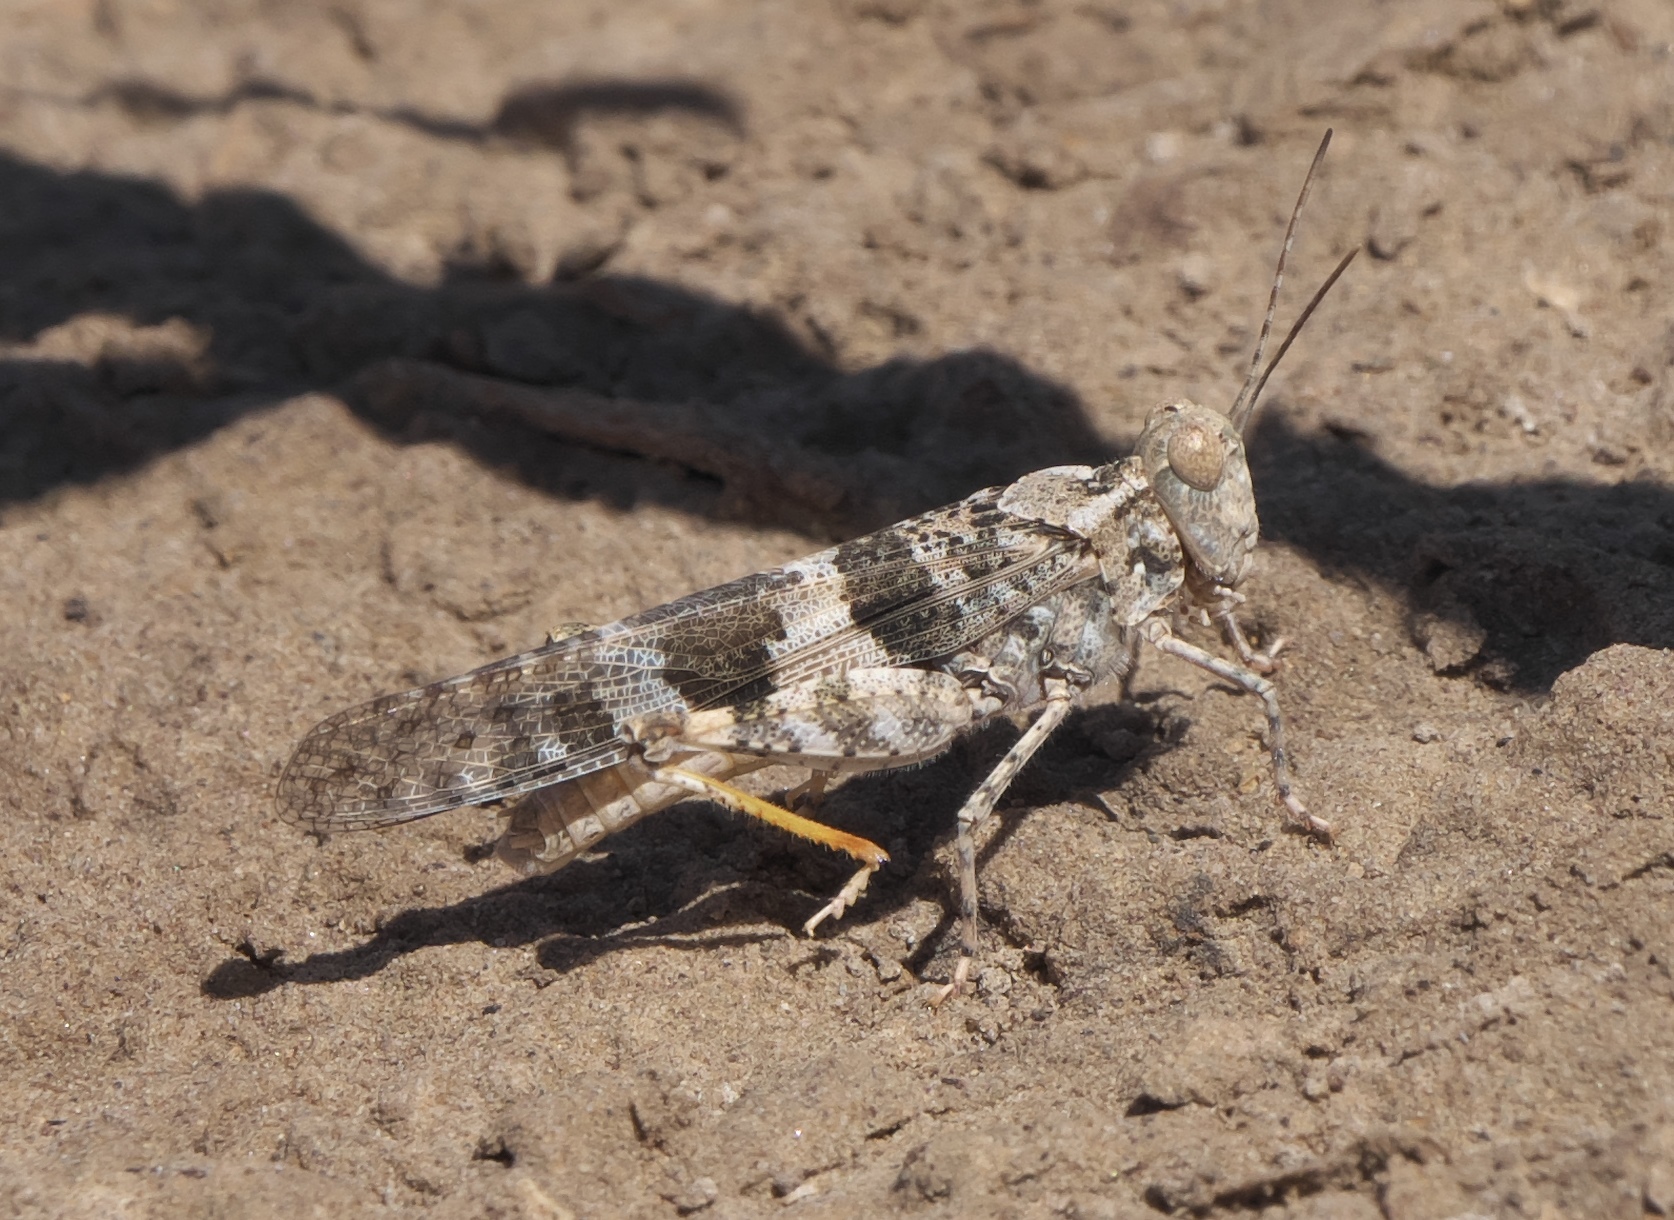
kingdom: Animalia
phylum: Arthropoda
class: Insecta
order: Orthoptera
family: Acrididae
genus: Trimerotropis
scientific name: Trimerotropis pallidipennis
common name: Pallid-winged grasshopper
